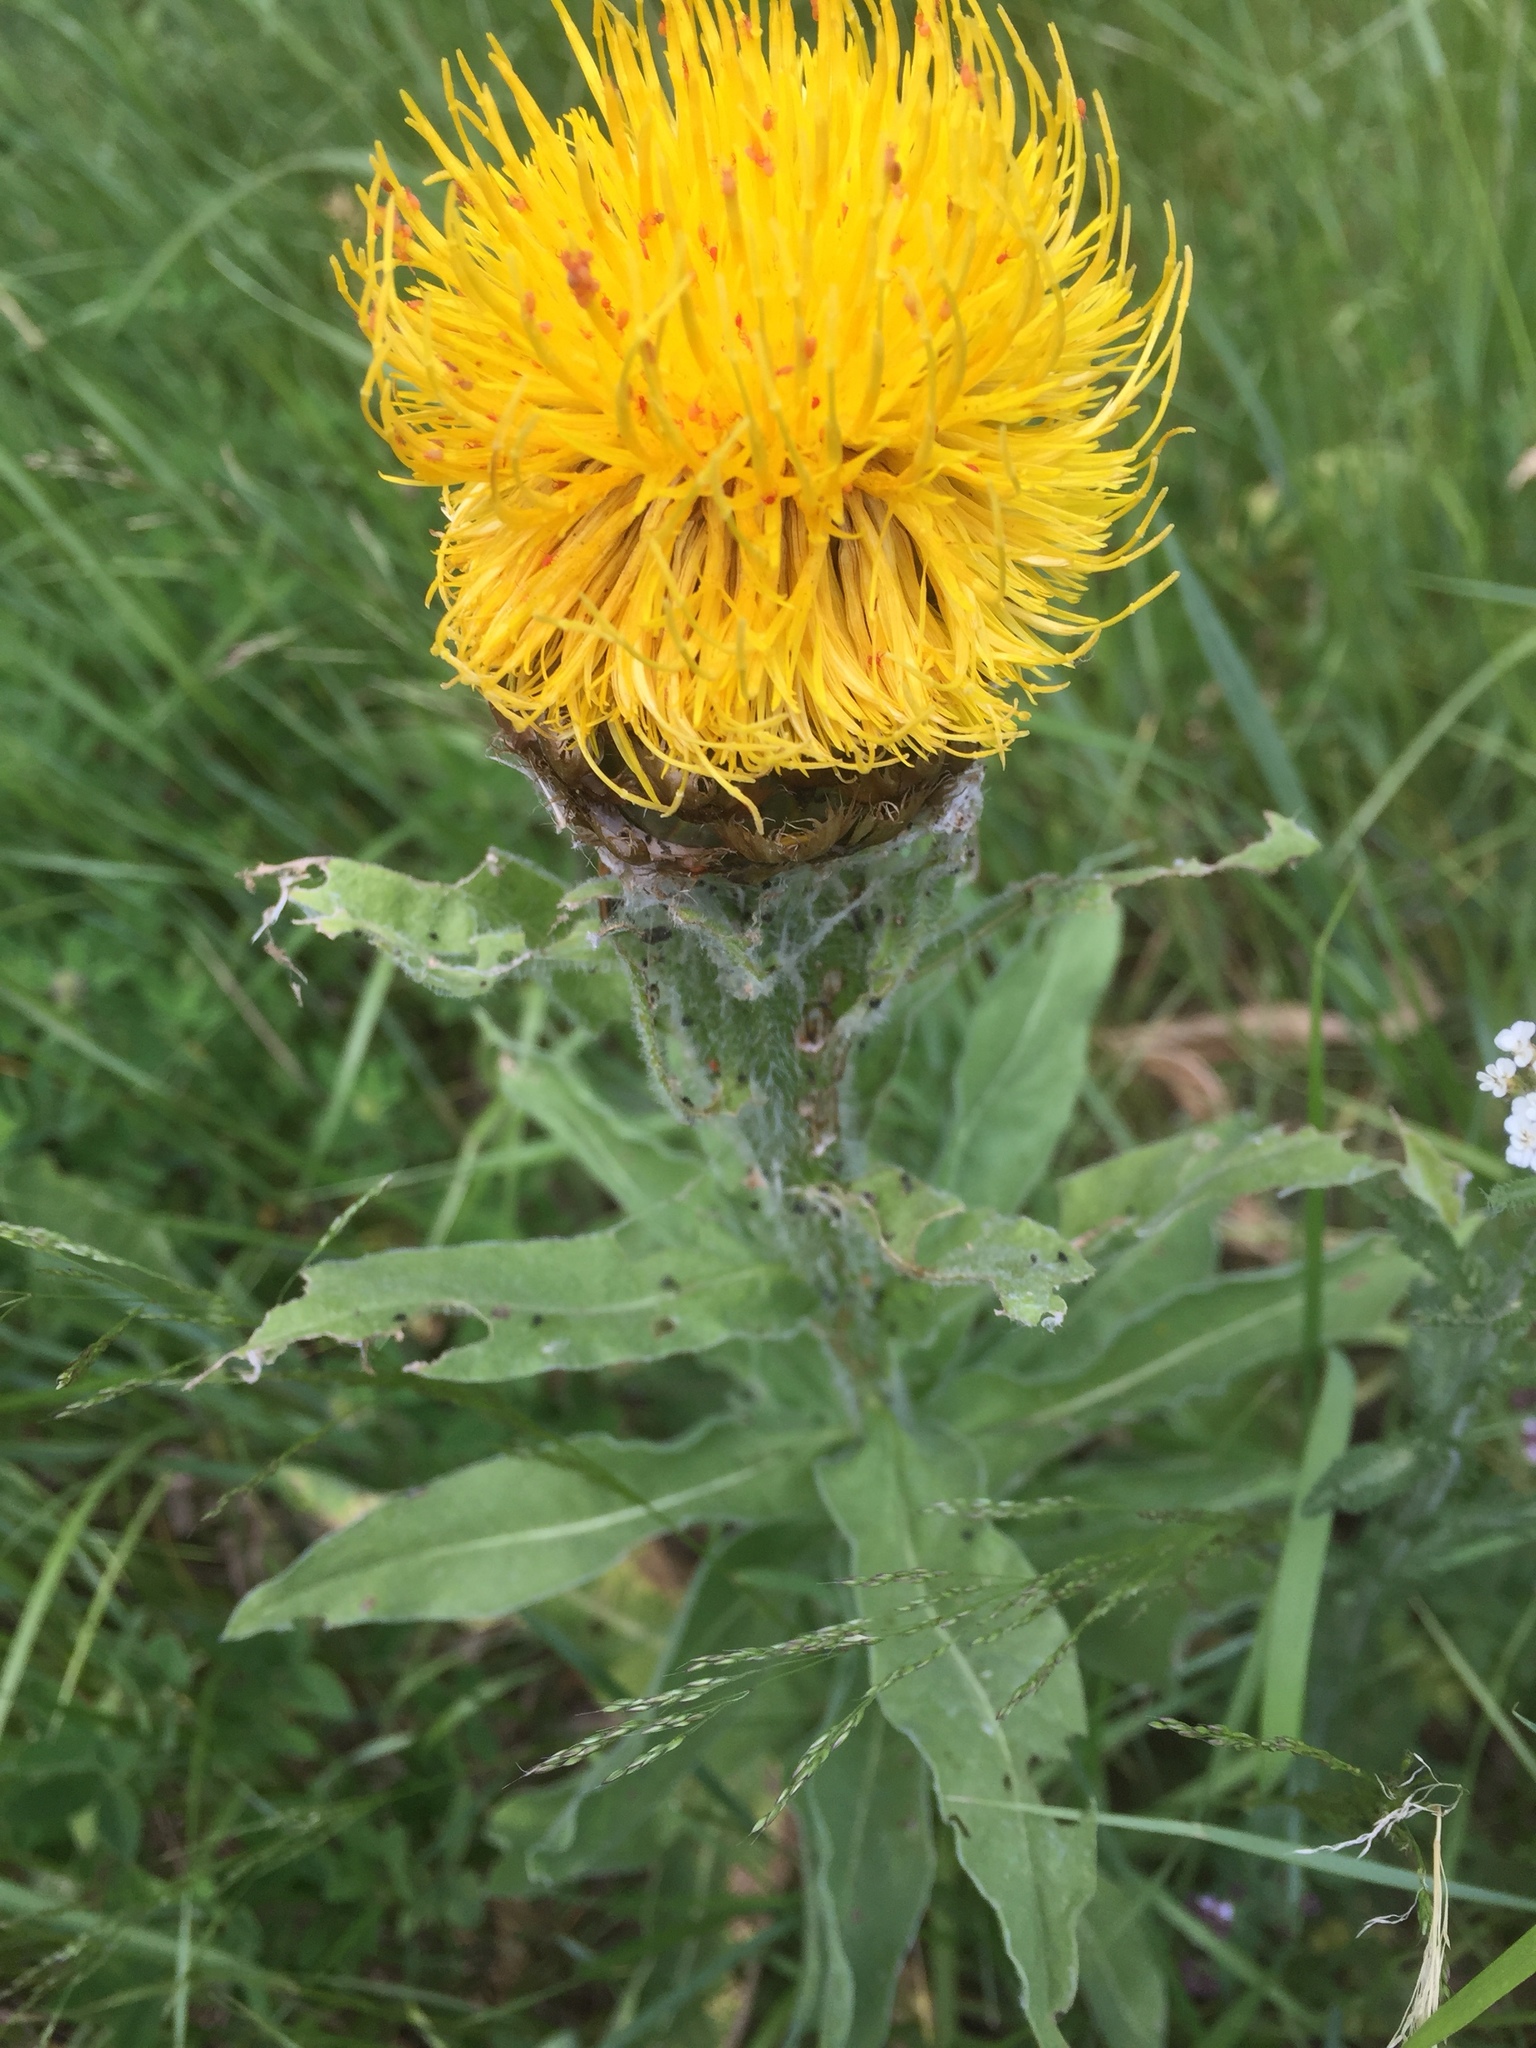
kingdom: Plantae
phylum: Tracheophyta
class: Magnoliopsida
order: Asterales
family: Asteraceae
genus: Centaurea
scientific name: Centaurea macrocephala
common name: Big-head knapweed
